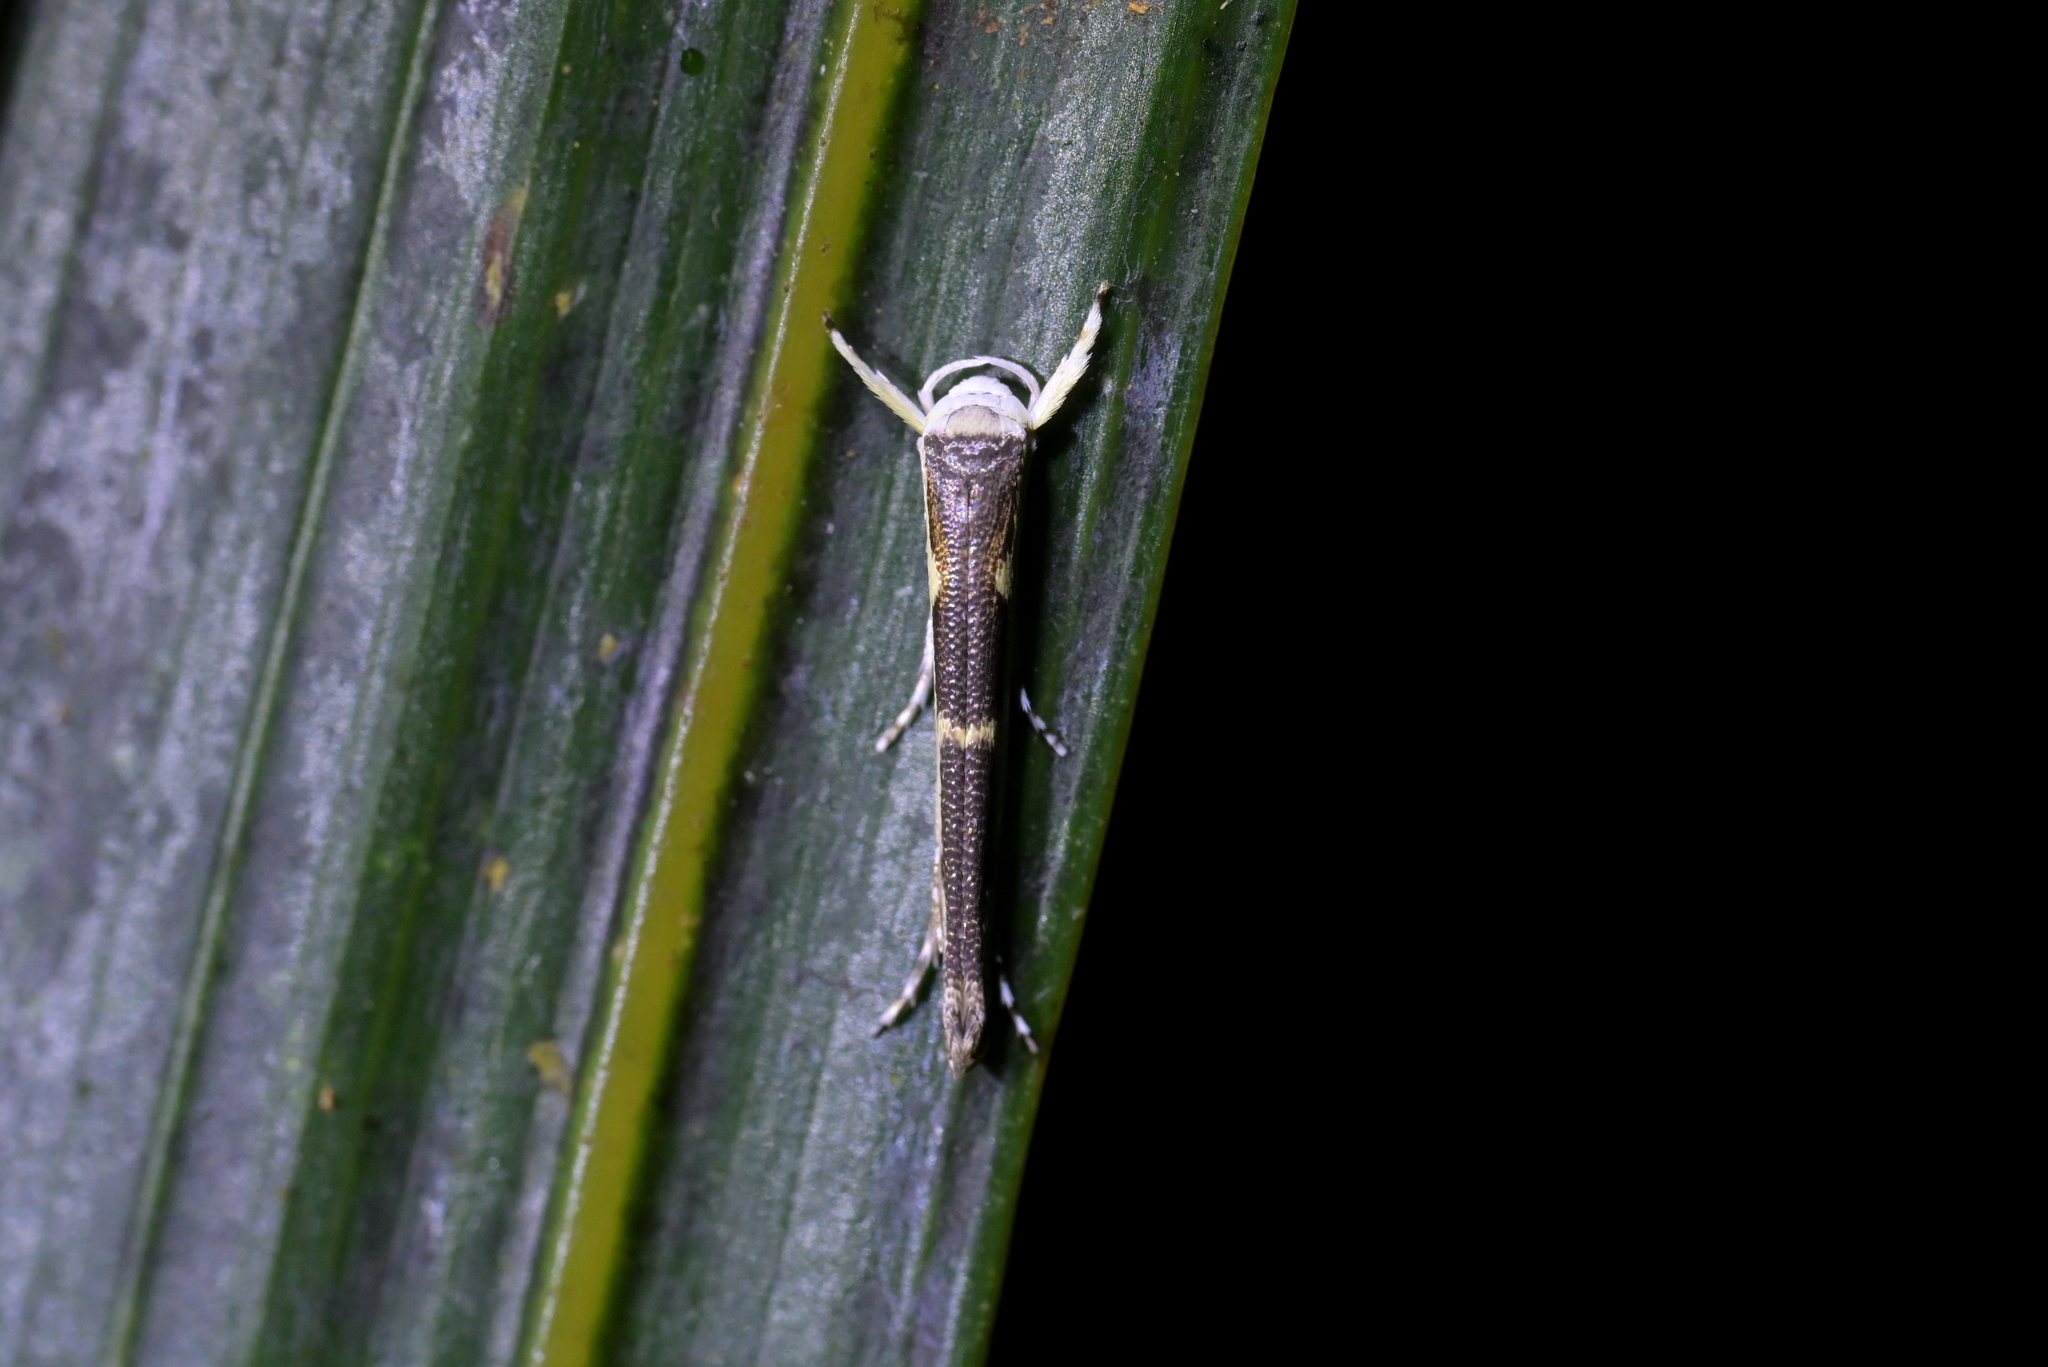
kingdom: Animalia
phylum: Arthropoda
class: Insecta
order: Lepidoptera
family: Roeslerstammiidae
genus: Vanicela
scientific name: Vanicela disjunctella
